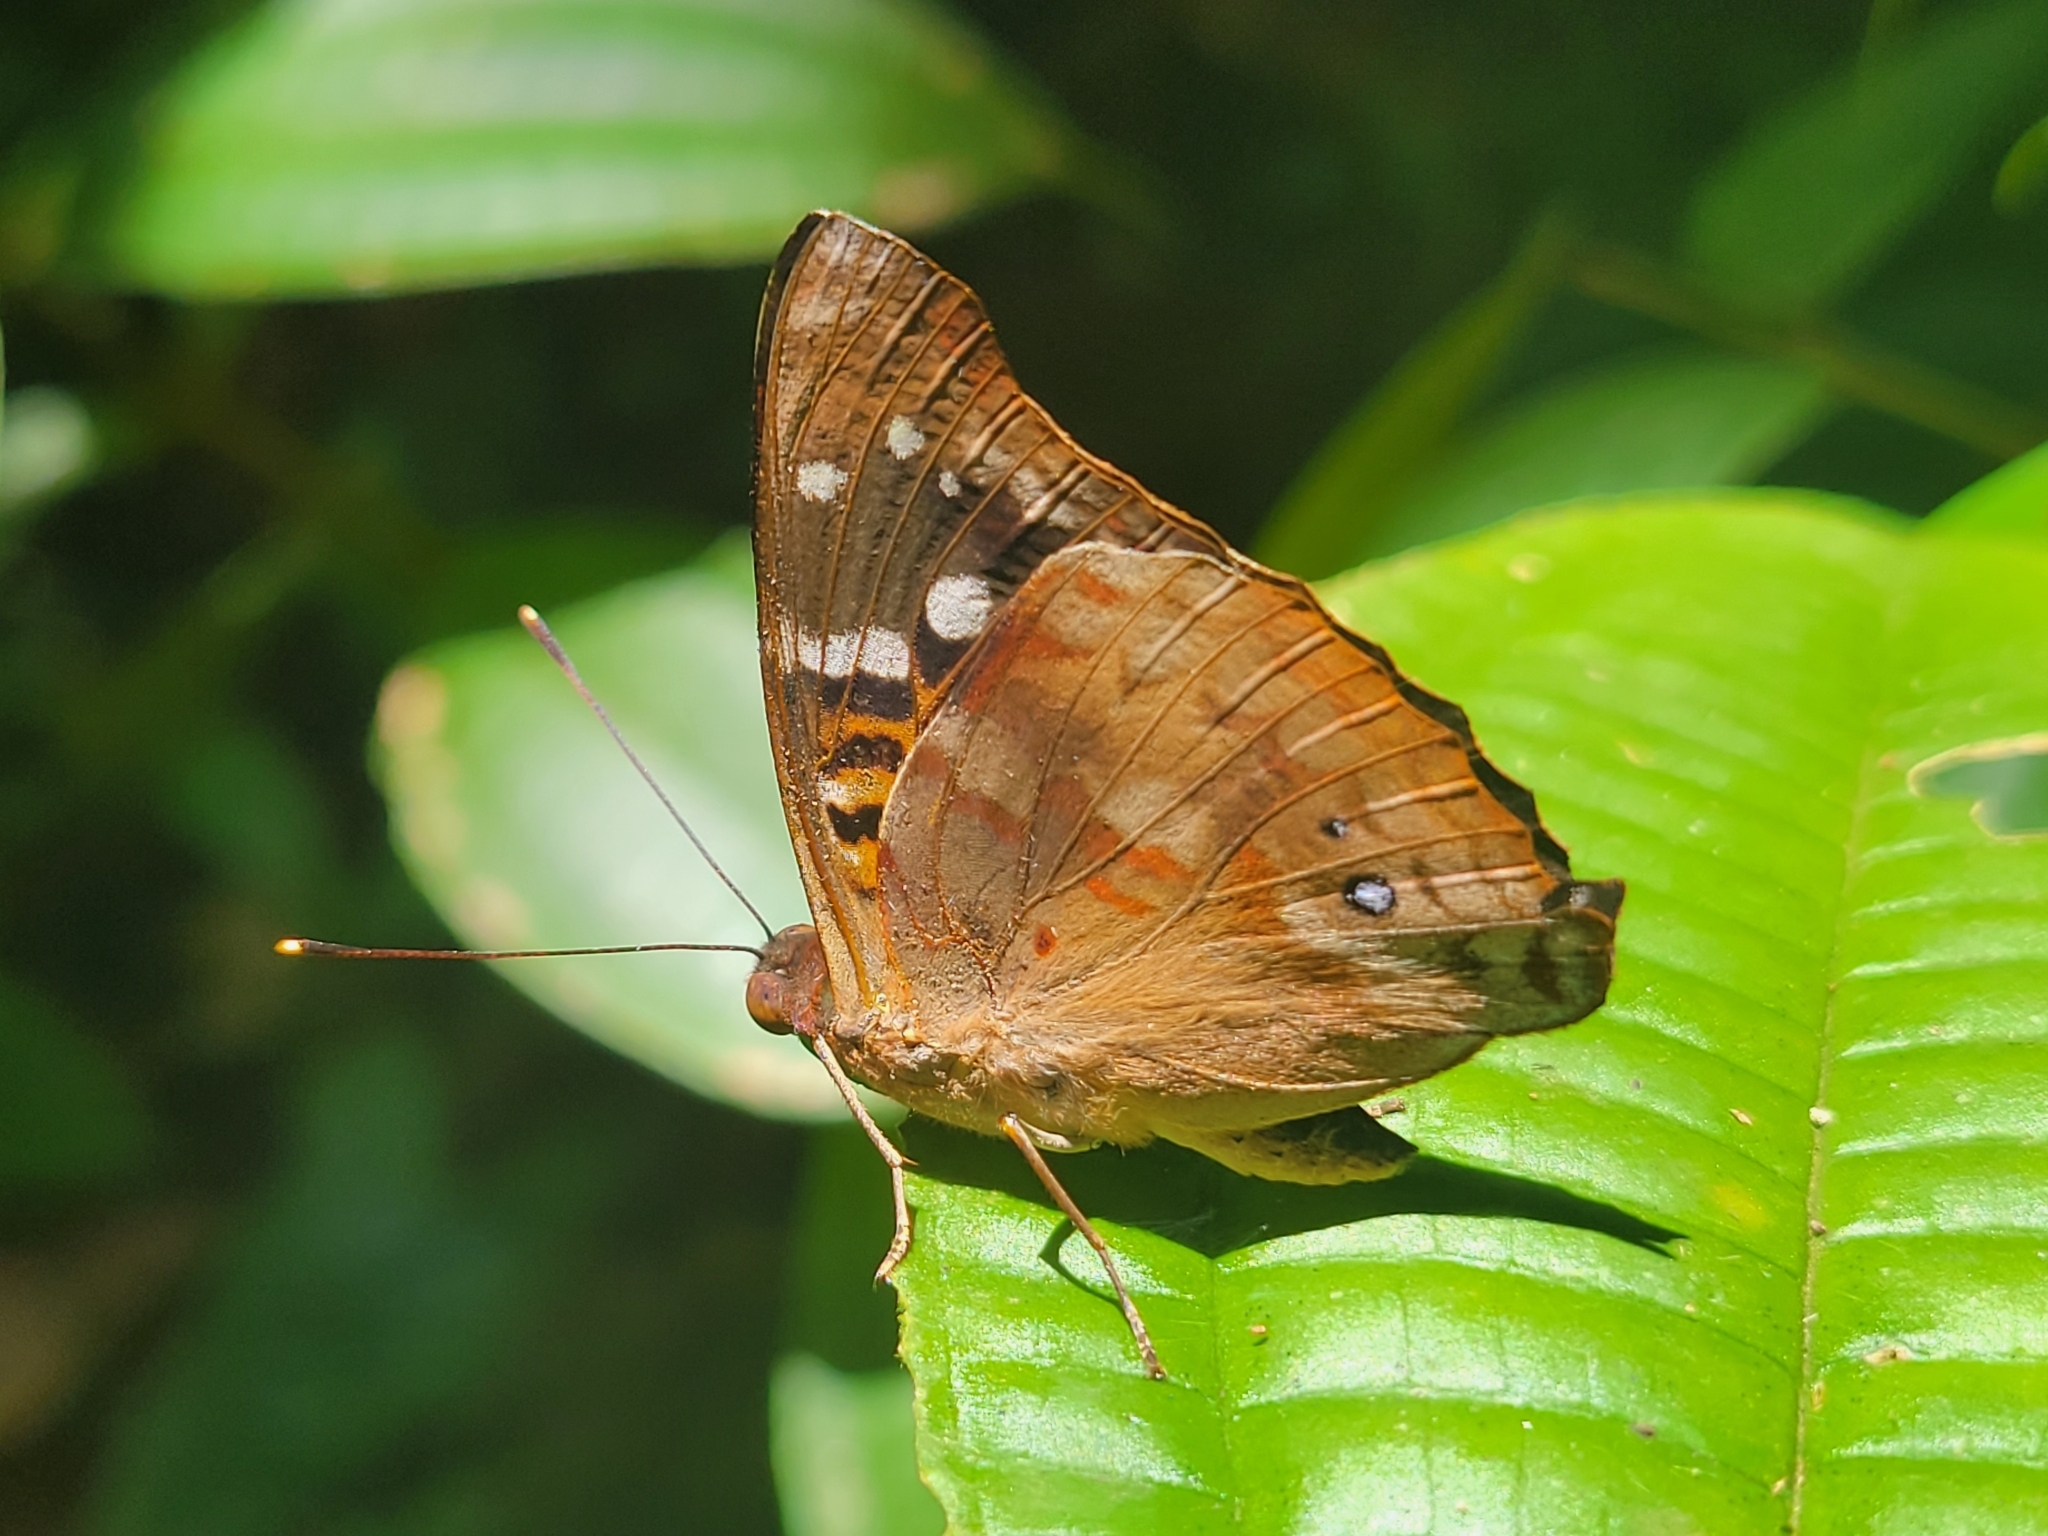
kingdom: Animalia
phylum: Arthropoda
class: Insecta
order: Lepidoptera
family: Nymphalidae
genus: Doxocopa
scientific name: Doxocopa agathina
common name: Agathina emperor
